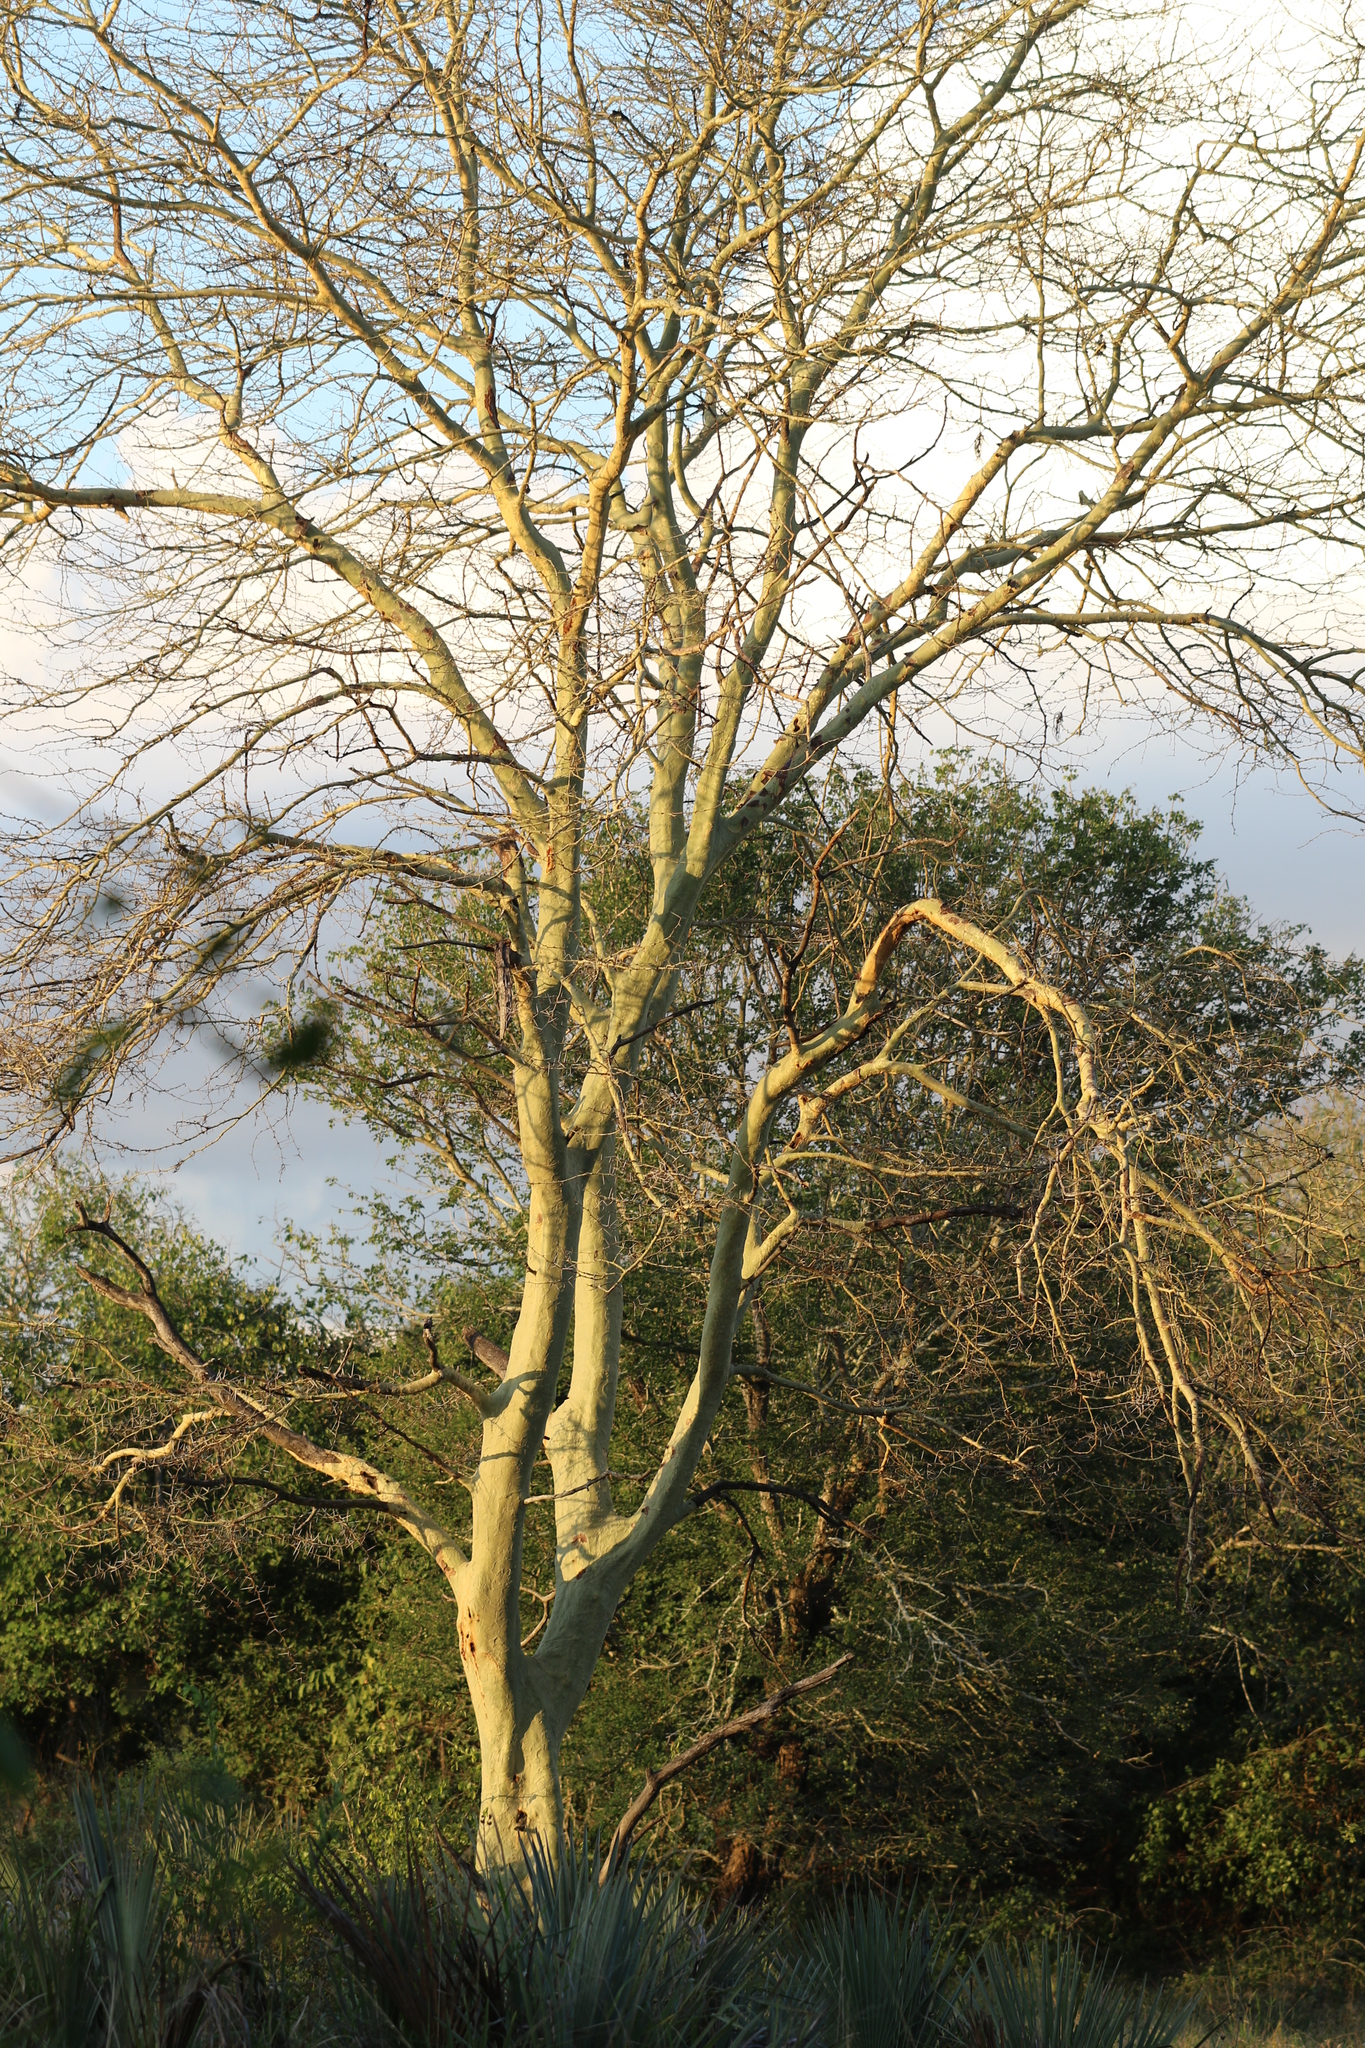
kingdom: Plantae
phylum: Tracheophyta
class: Magnoliopsida
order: Fabales
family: Fabaceae
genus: Vachellia
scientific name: Vachellia xanthophloea
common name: Fever tree
